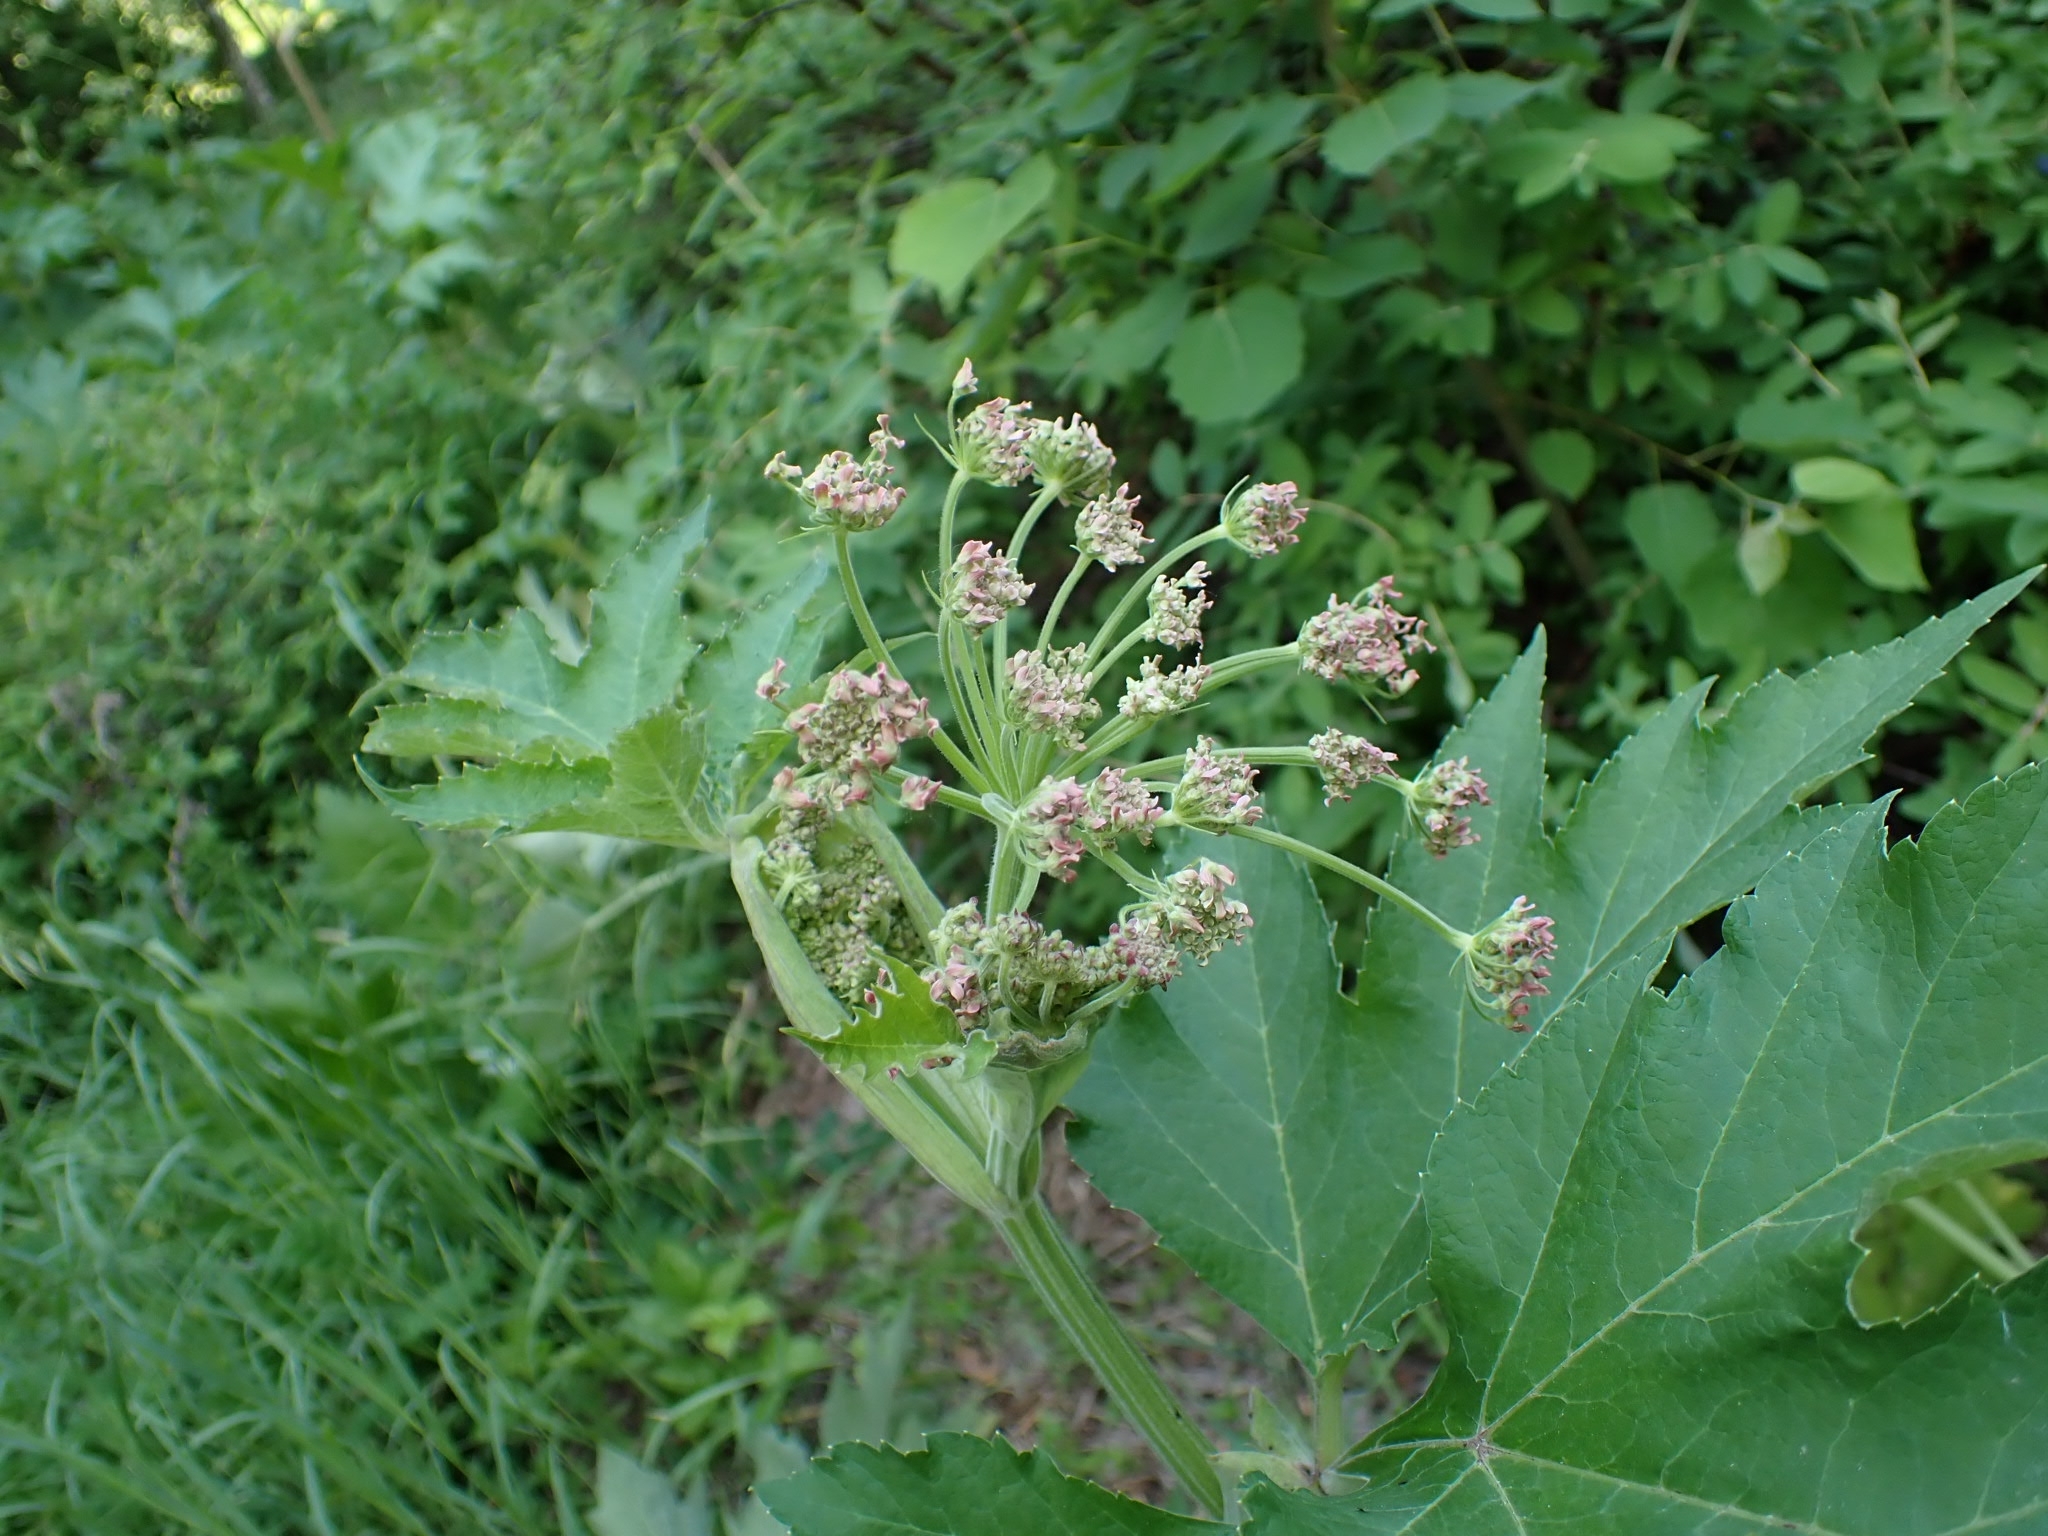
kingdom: Plantae
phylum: Tracheophyta
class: Magnoliopsida
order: Apiales
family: Apiaceae
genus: Heracleum
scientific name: Heracleum dissectum
